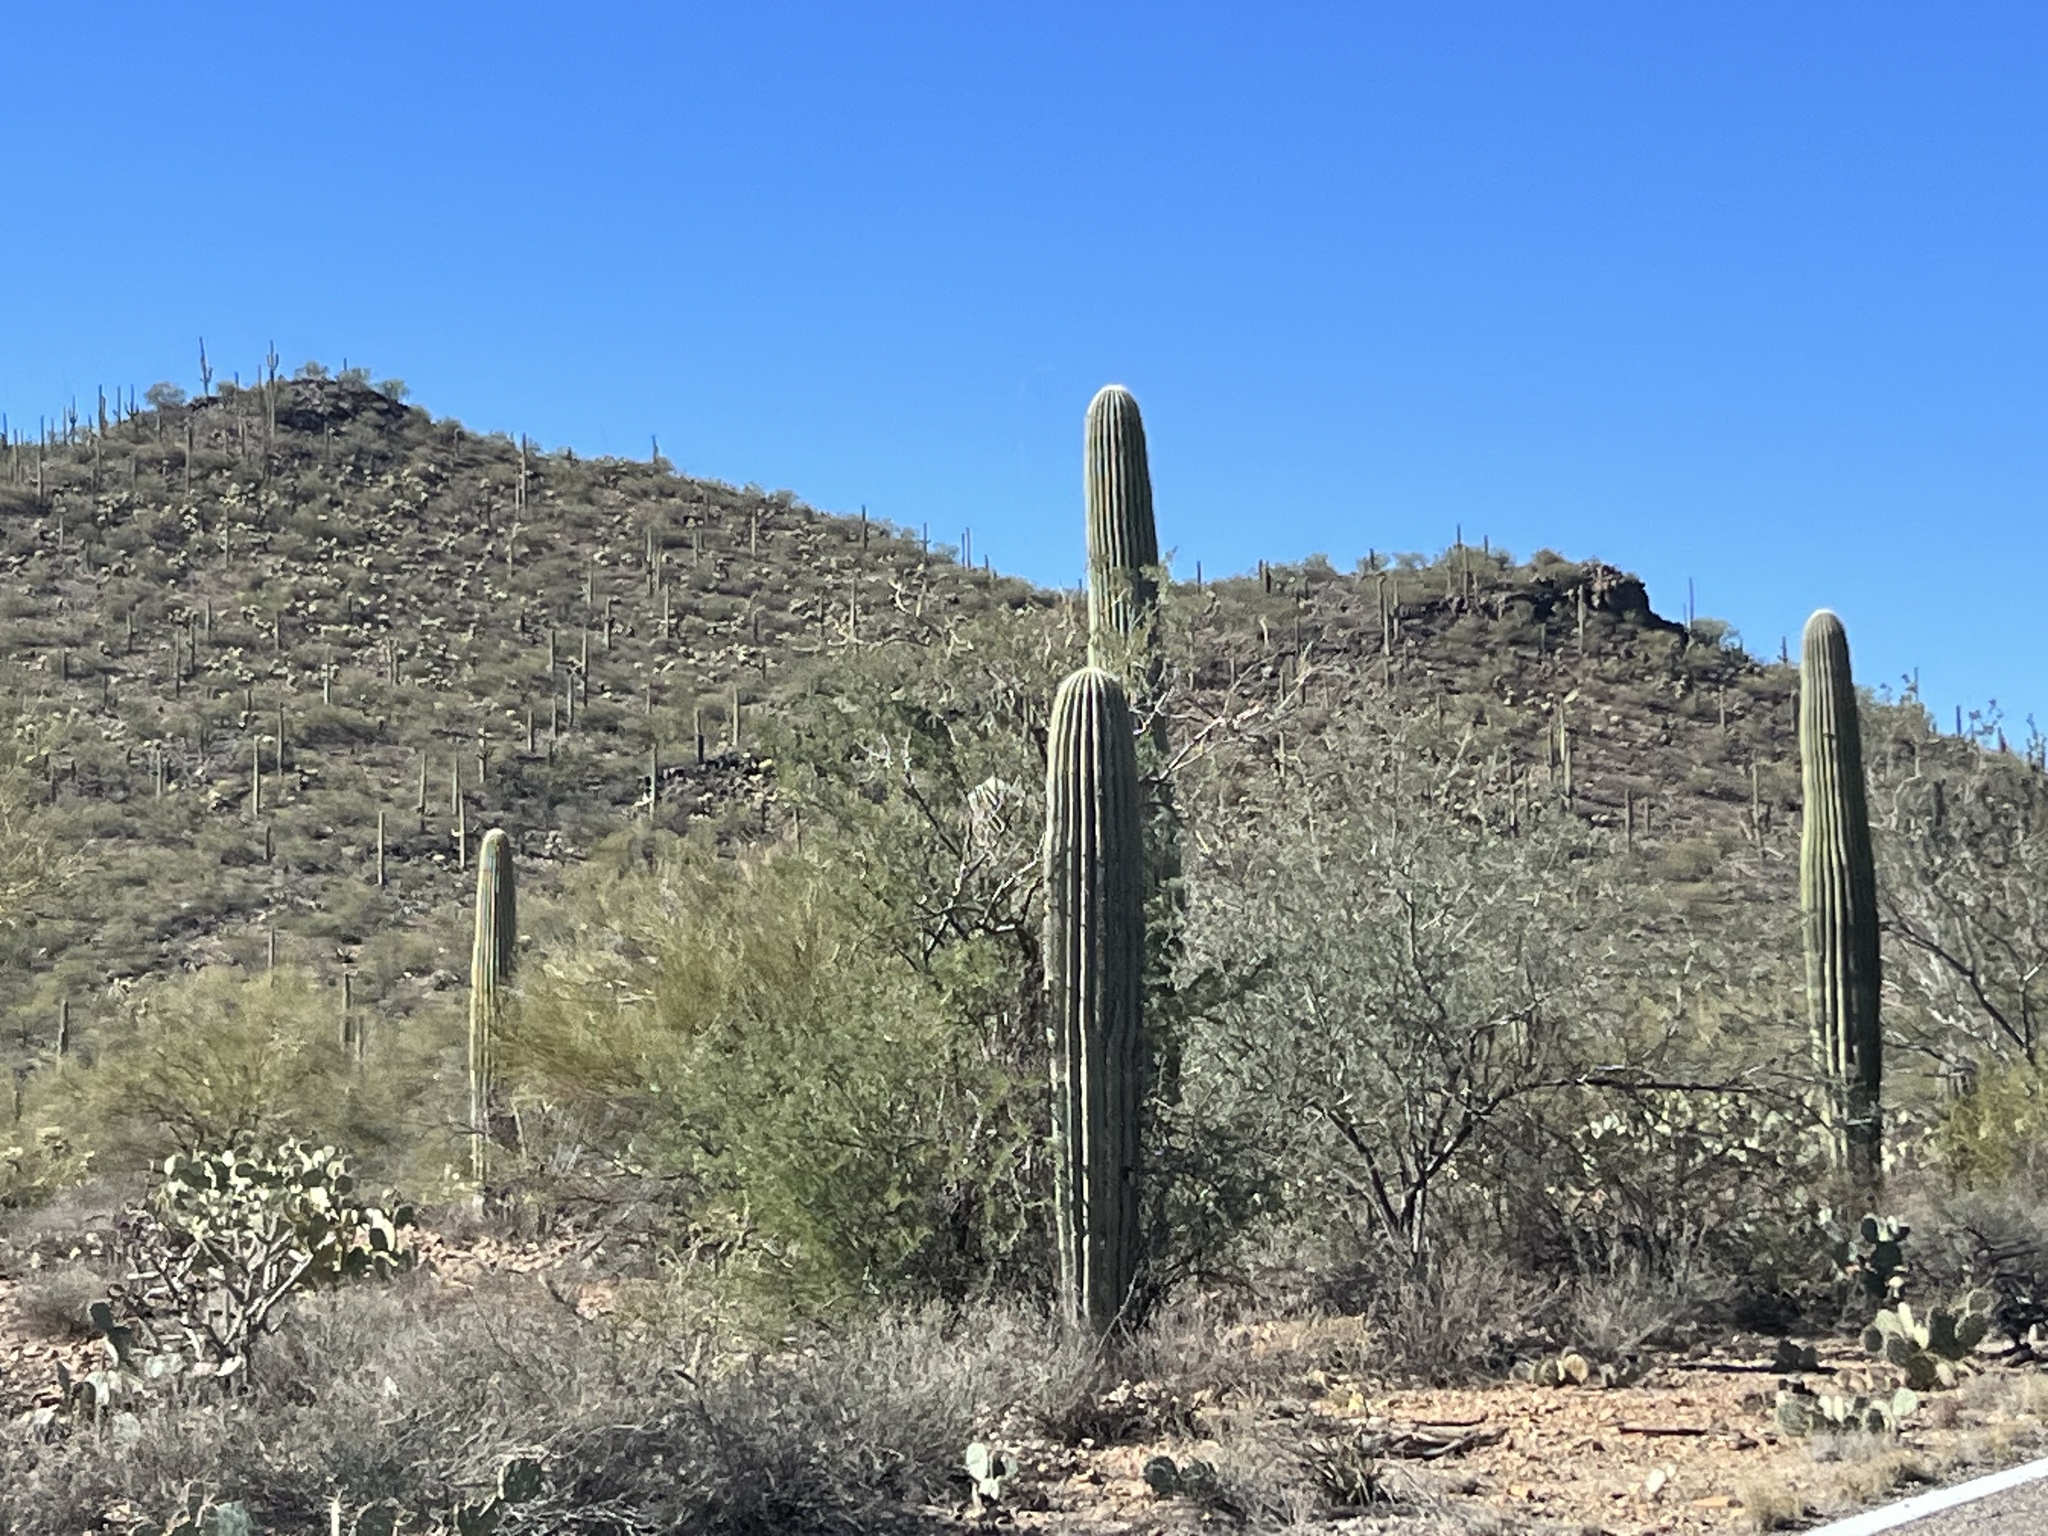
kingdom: Plantae
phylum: Tracheophyta
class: Magnoliopsida
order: Caryophyllales
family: Cactaceae
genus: Carnegiea
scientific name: Carnegiea gigantea
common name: Saguaro
